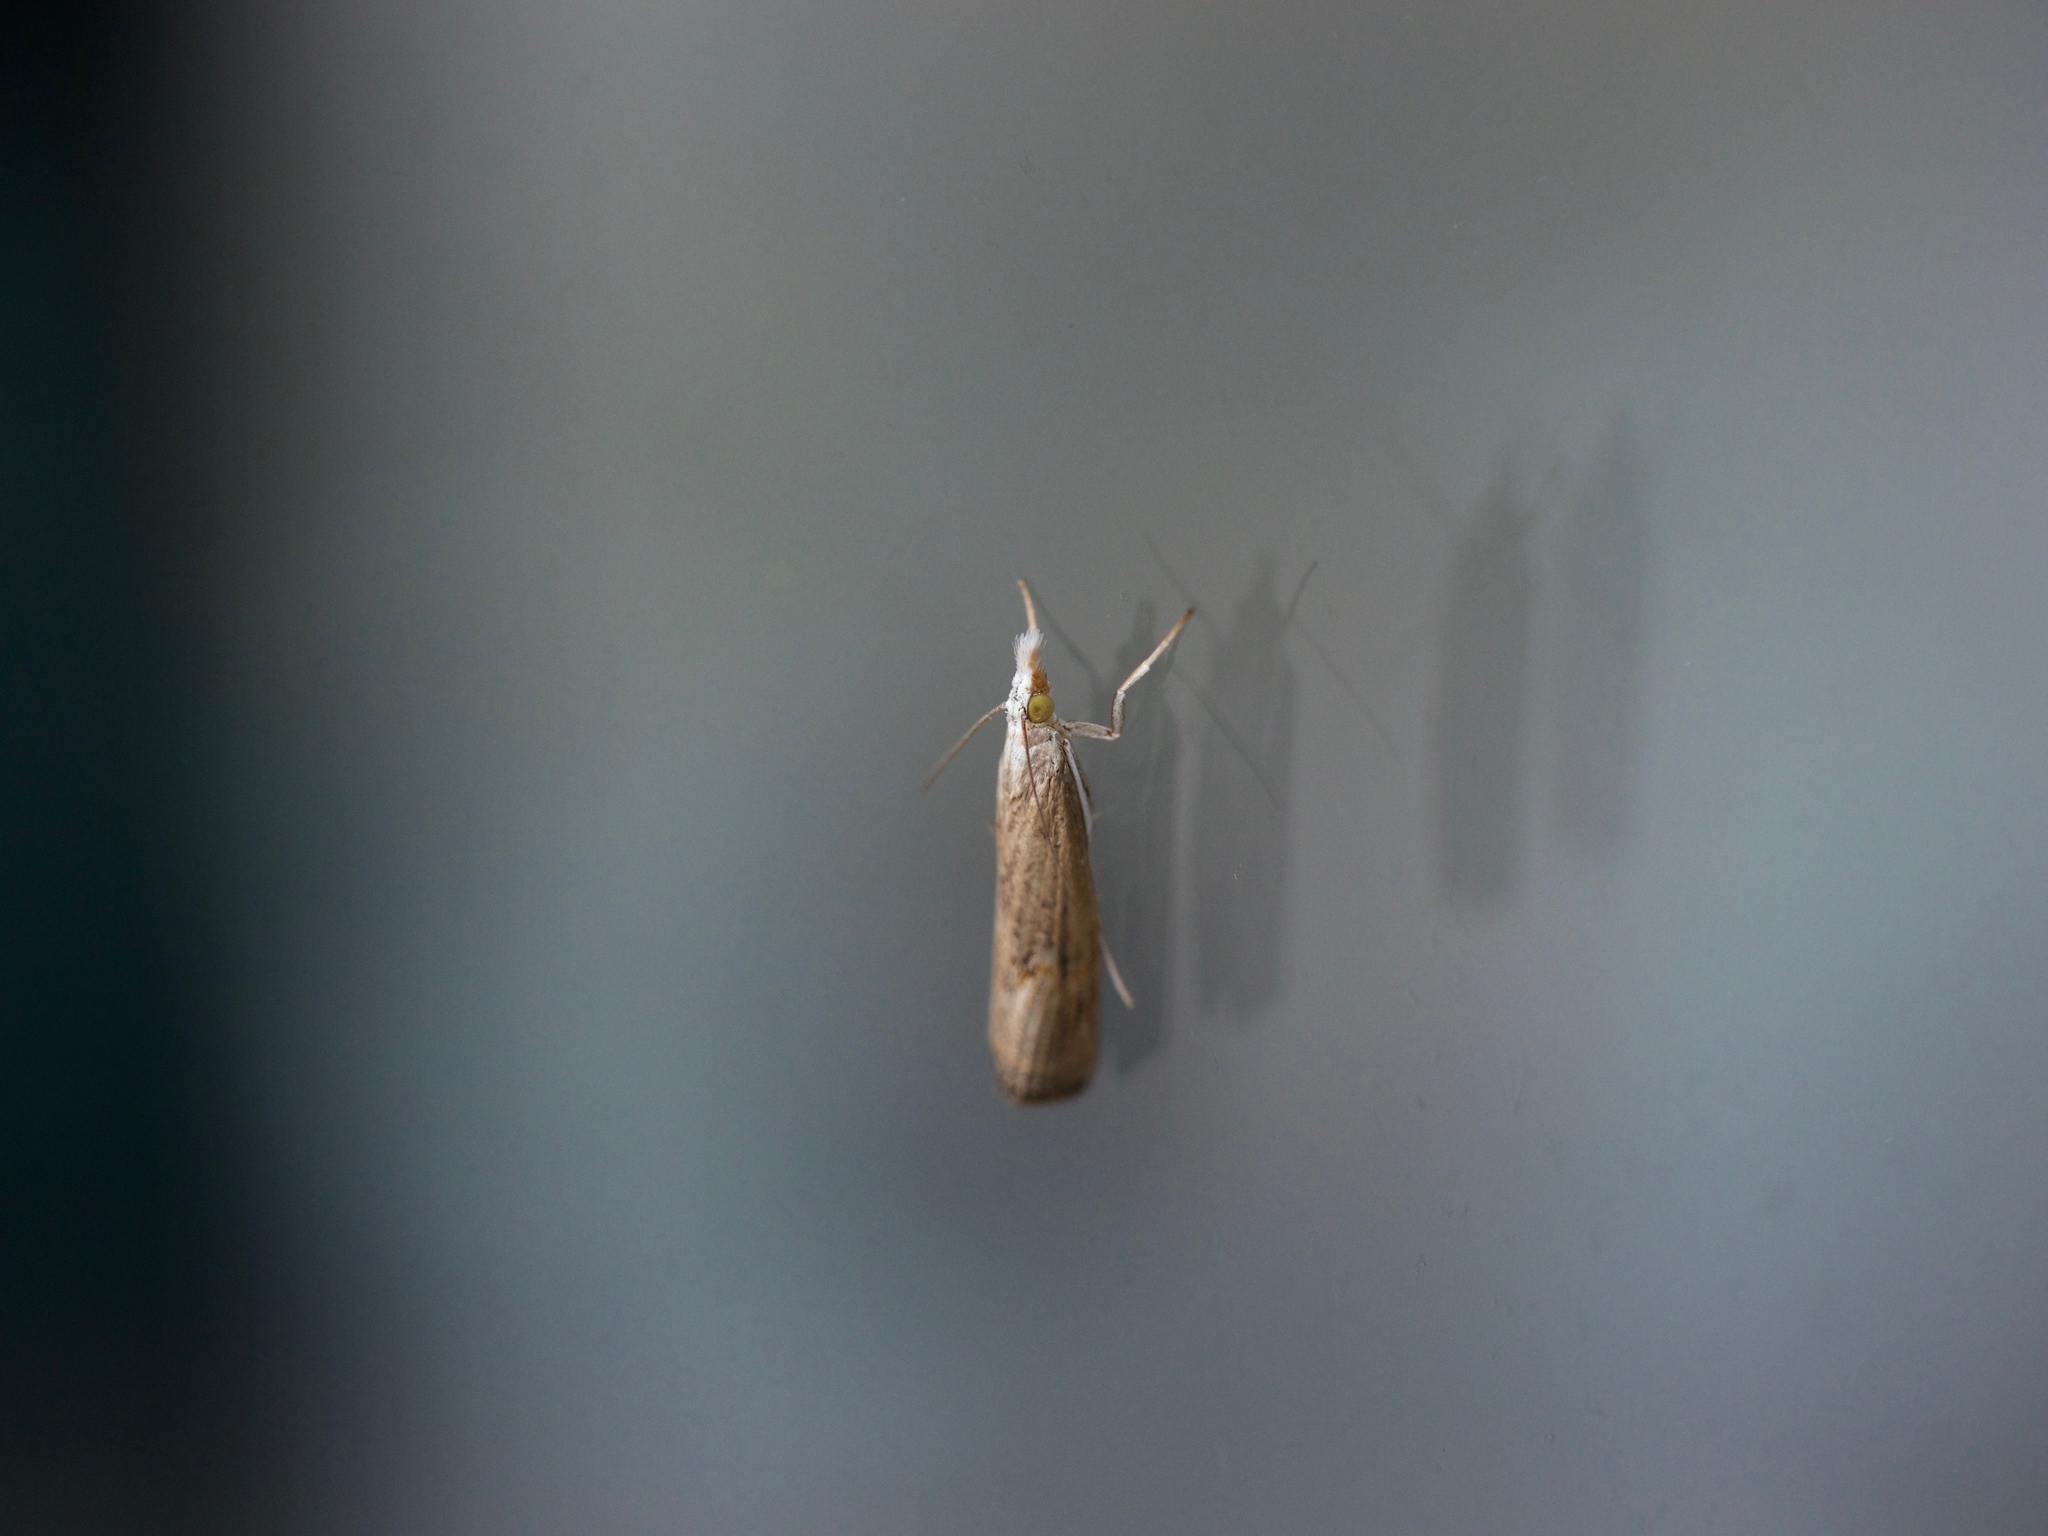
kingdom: Animalia
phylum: Arthropoda
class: Insecta
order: Lepidoptera
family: Crambidae
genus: Parapediasia
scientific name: Parapediasia teterellus
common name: Bluegrass webworm moth
